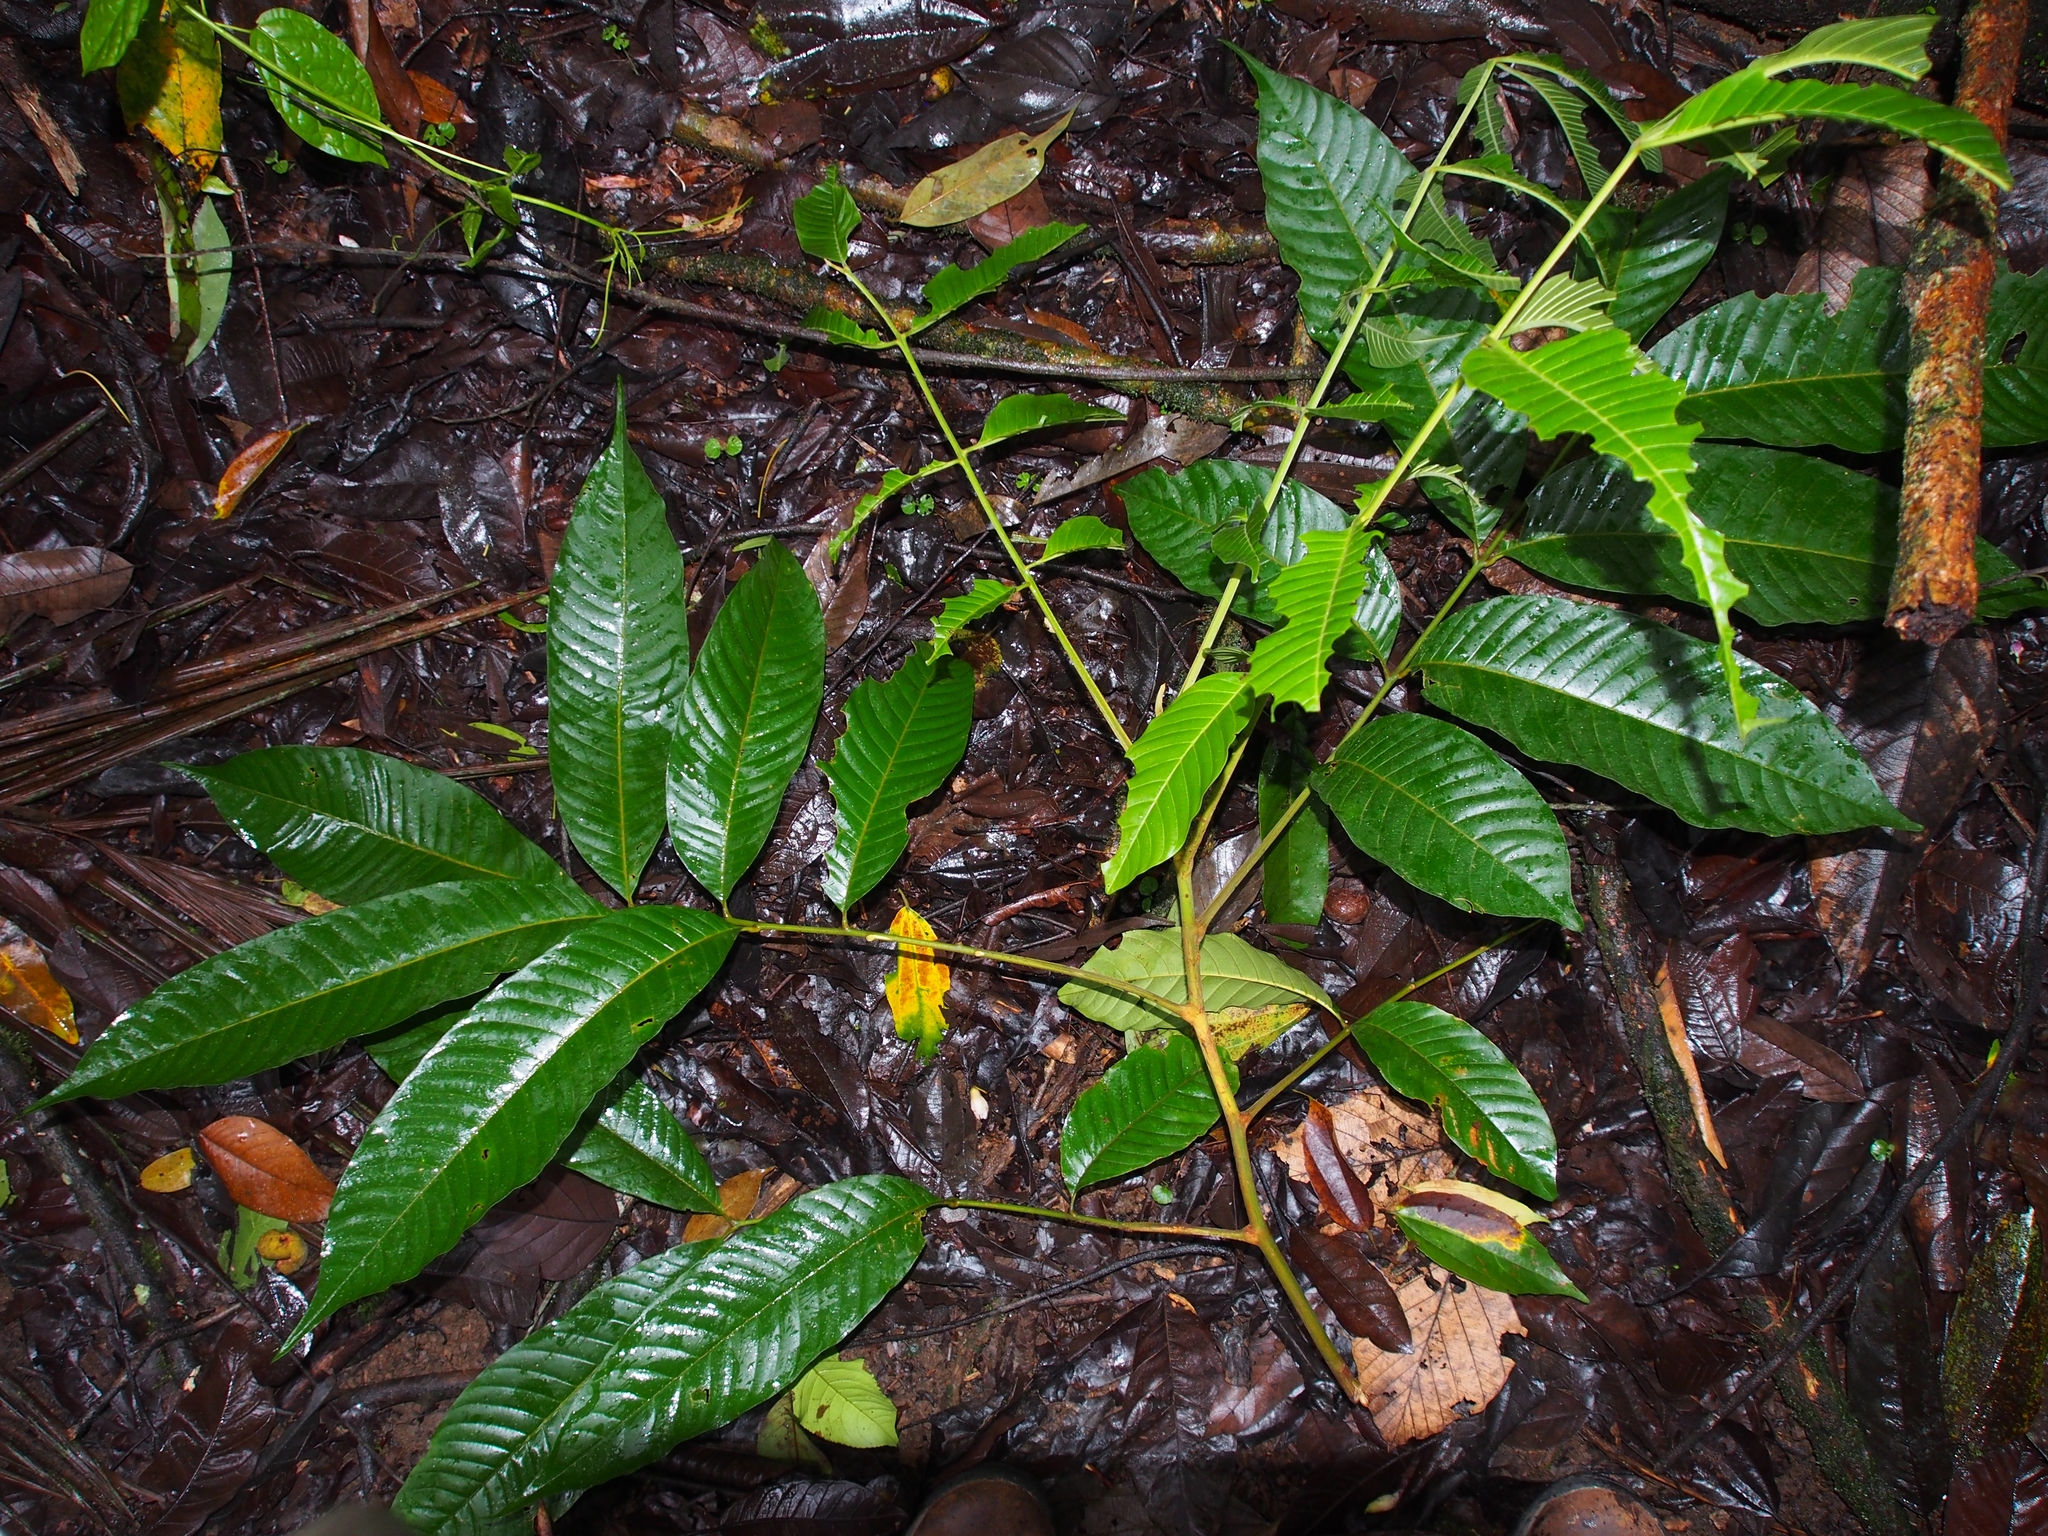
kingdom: Plantae
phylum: Tracheophyta
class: Magnoliopsida
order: Sapindales
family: Meliaceae
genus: Trichilia
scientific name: Trichilia septentrionalis
